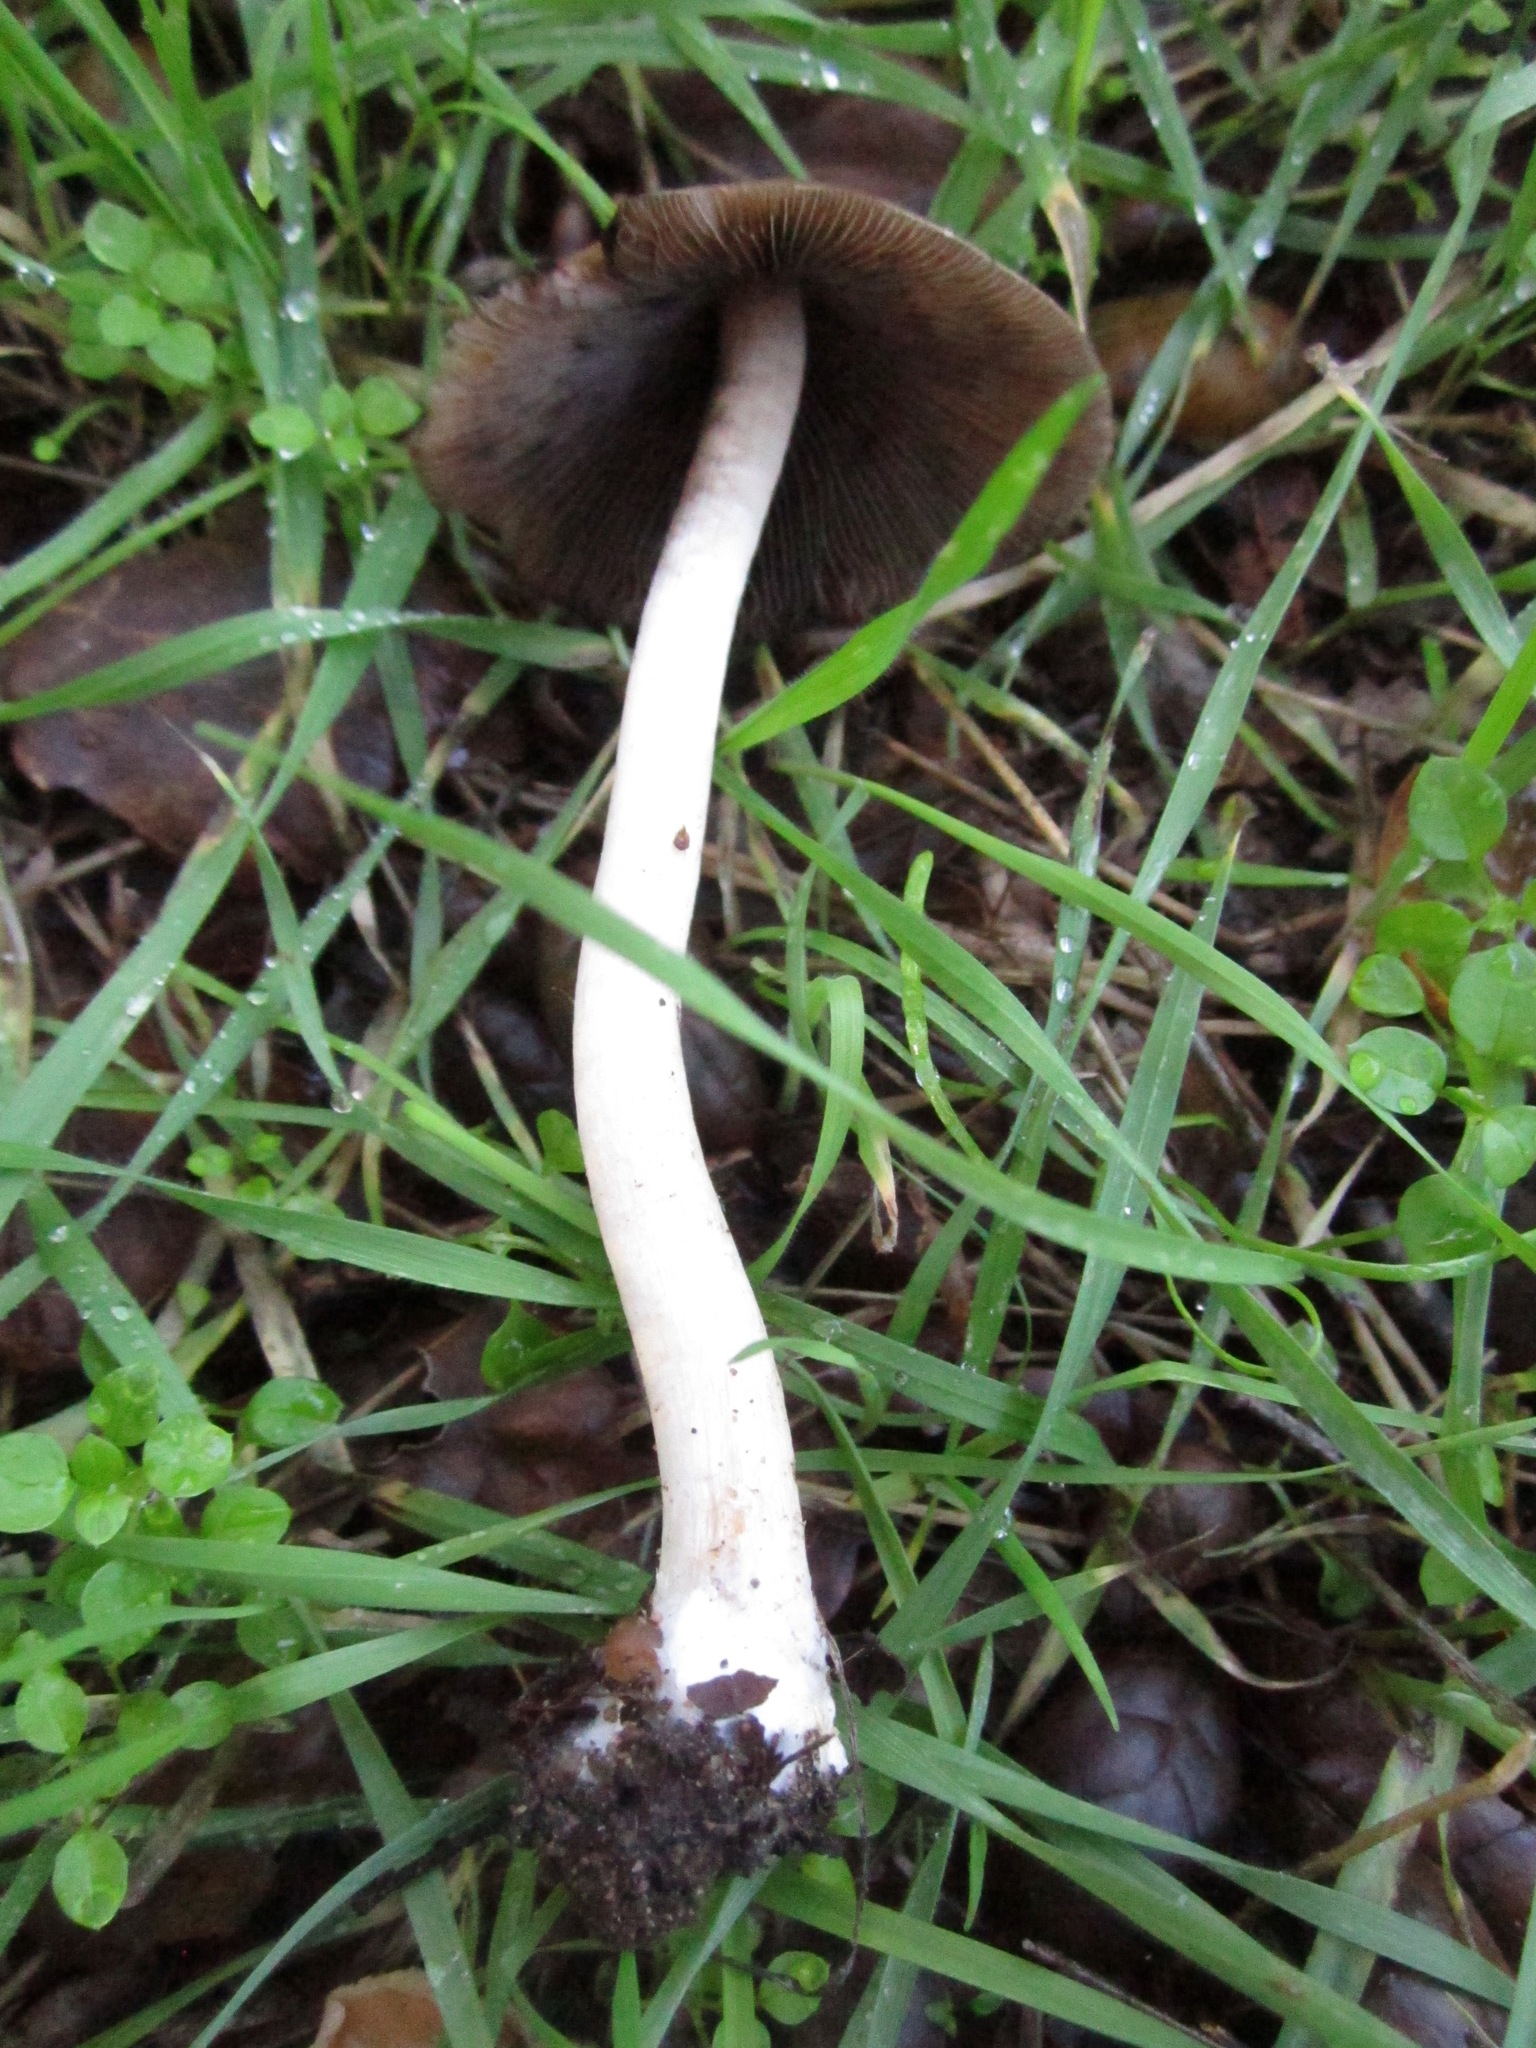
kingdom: Fungi
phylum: Basidiomycota
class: Agaricomycetes
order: Agaricales
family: Psathyrellaceae
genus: Psathyrella
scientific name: Psathyrella longipes
